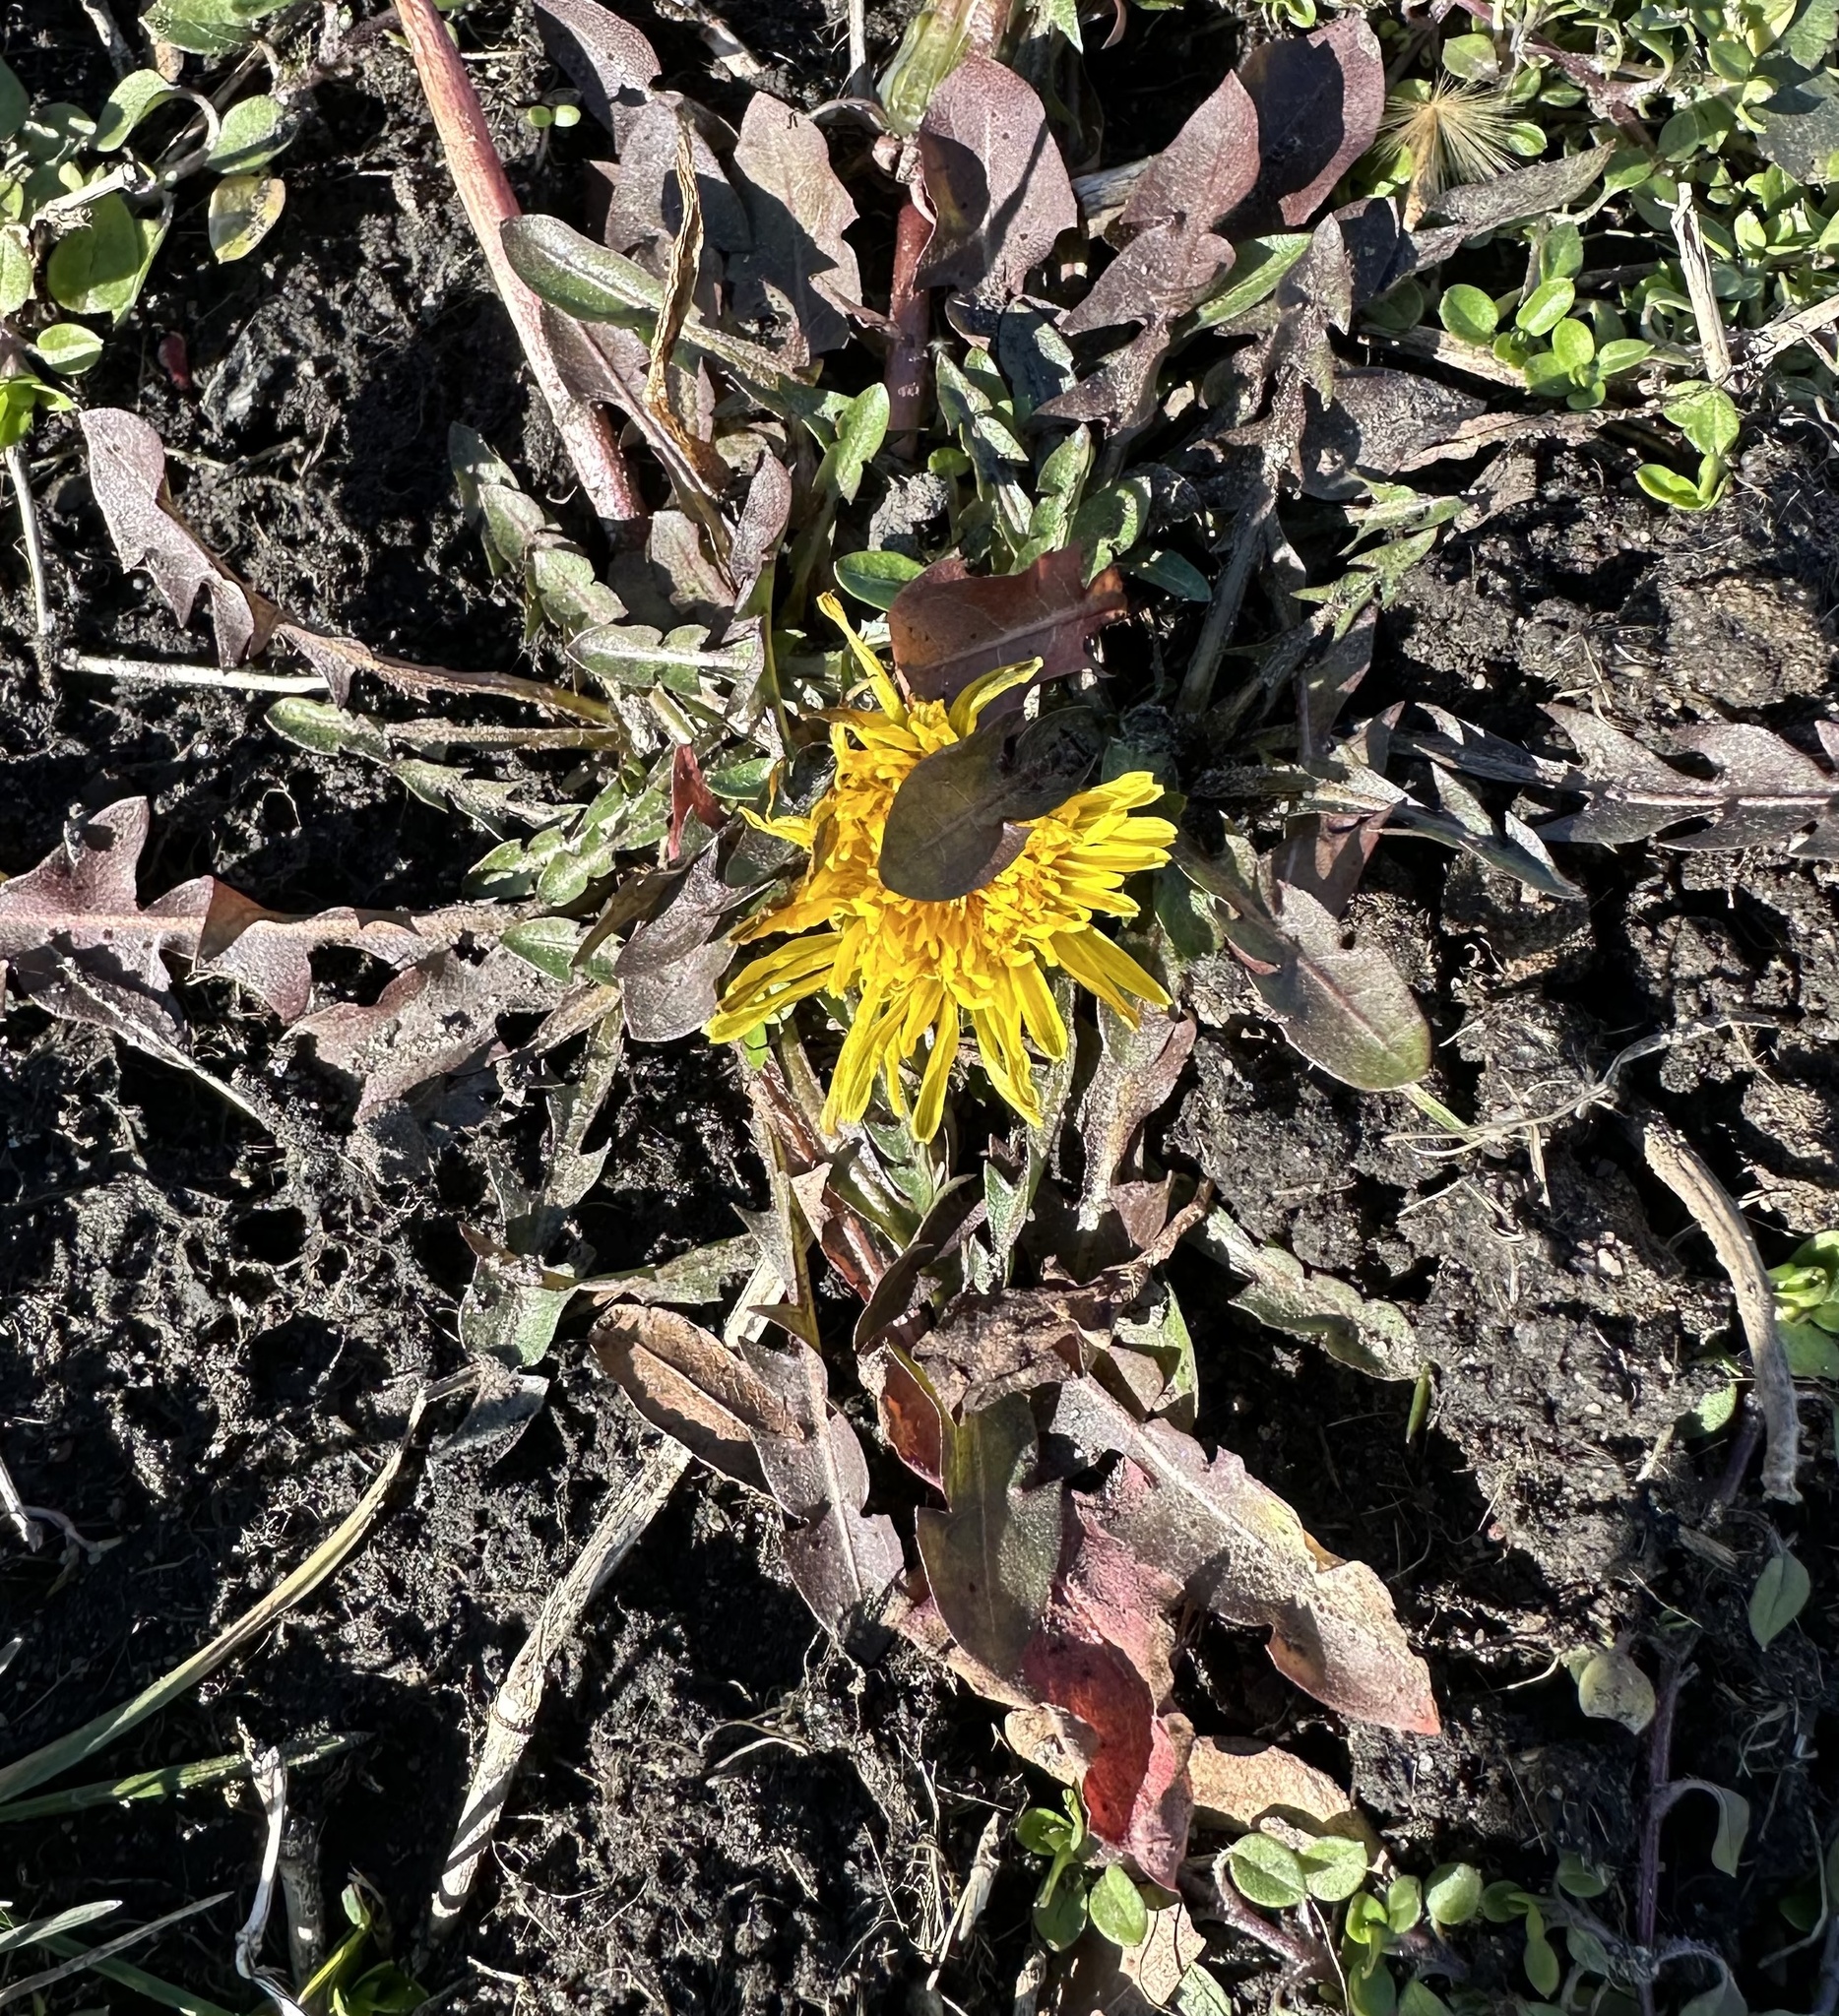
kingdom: Plantae
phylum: Tracheophyta
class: Magnoliopsida
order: Asterales
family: Asteraceae
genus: Taraxacum
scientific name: Taraxacum officinale
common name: Common dandelion
